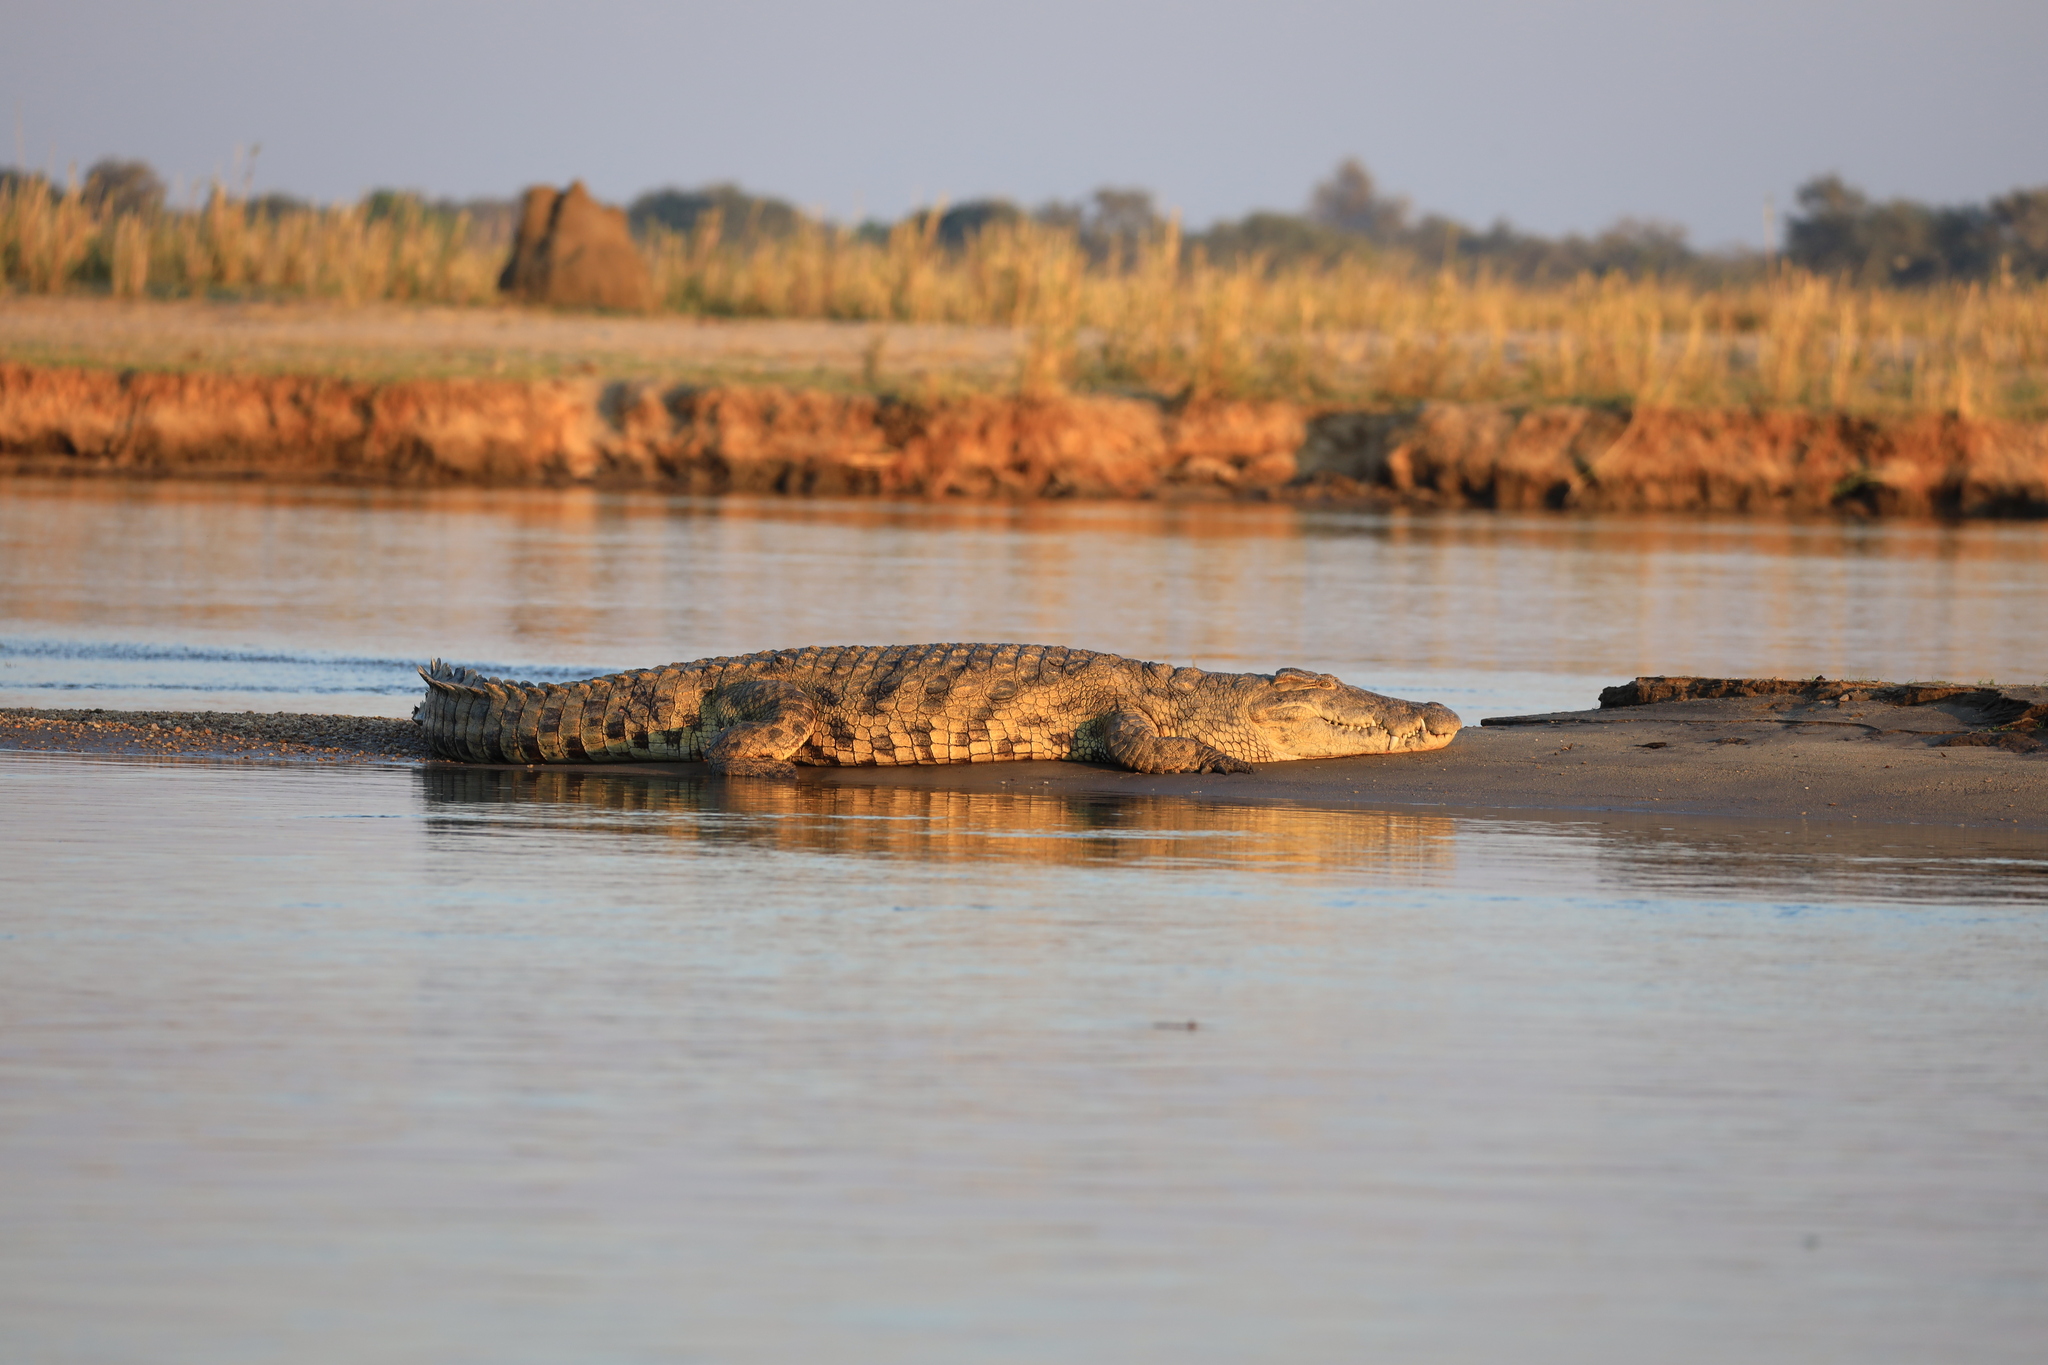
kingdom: Animalia
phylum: Chordata
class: Crocodylia
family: Crocodylidae
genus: Crocodylus
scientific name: Crocodylus niloticus
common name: Nile crocodile
